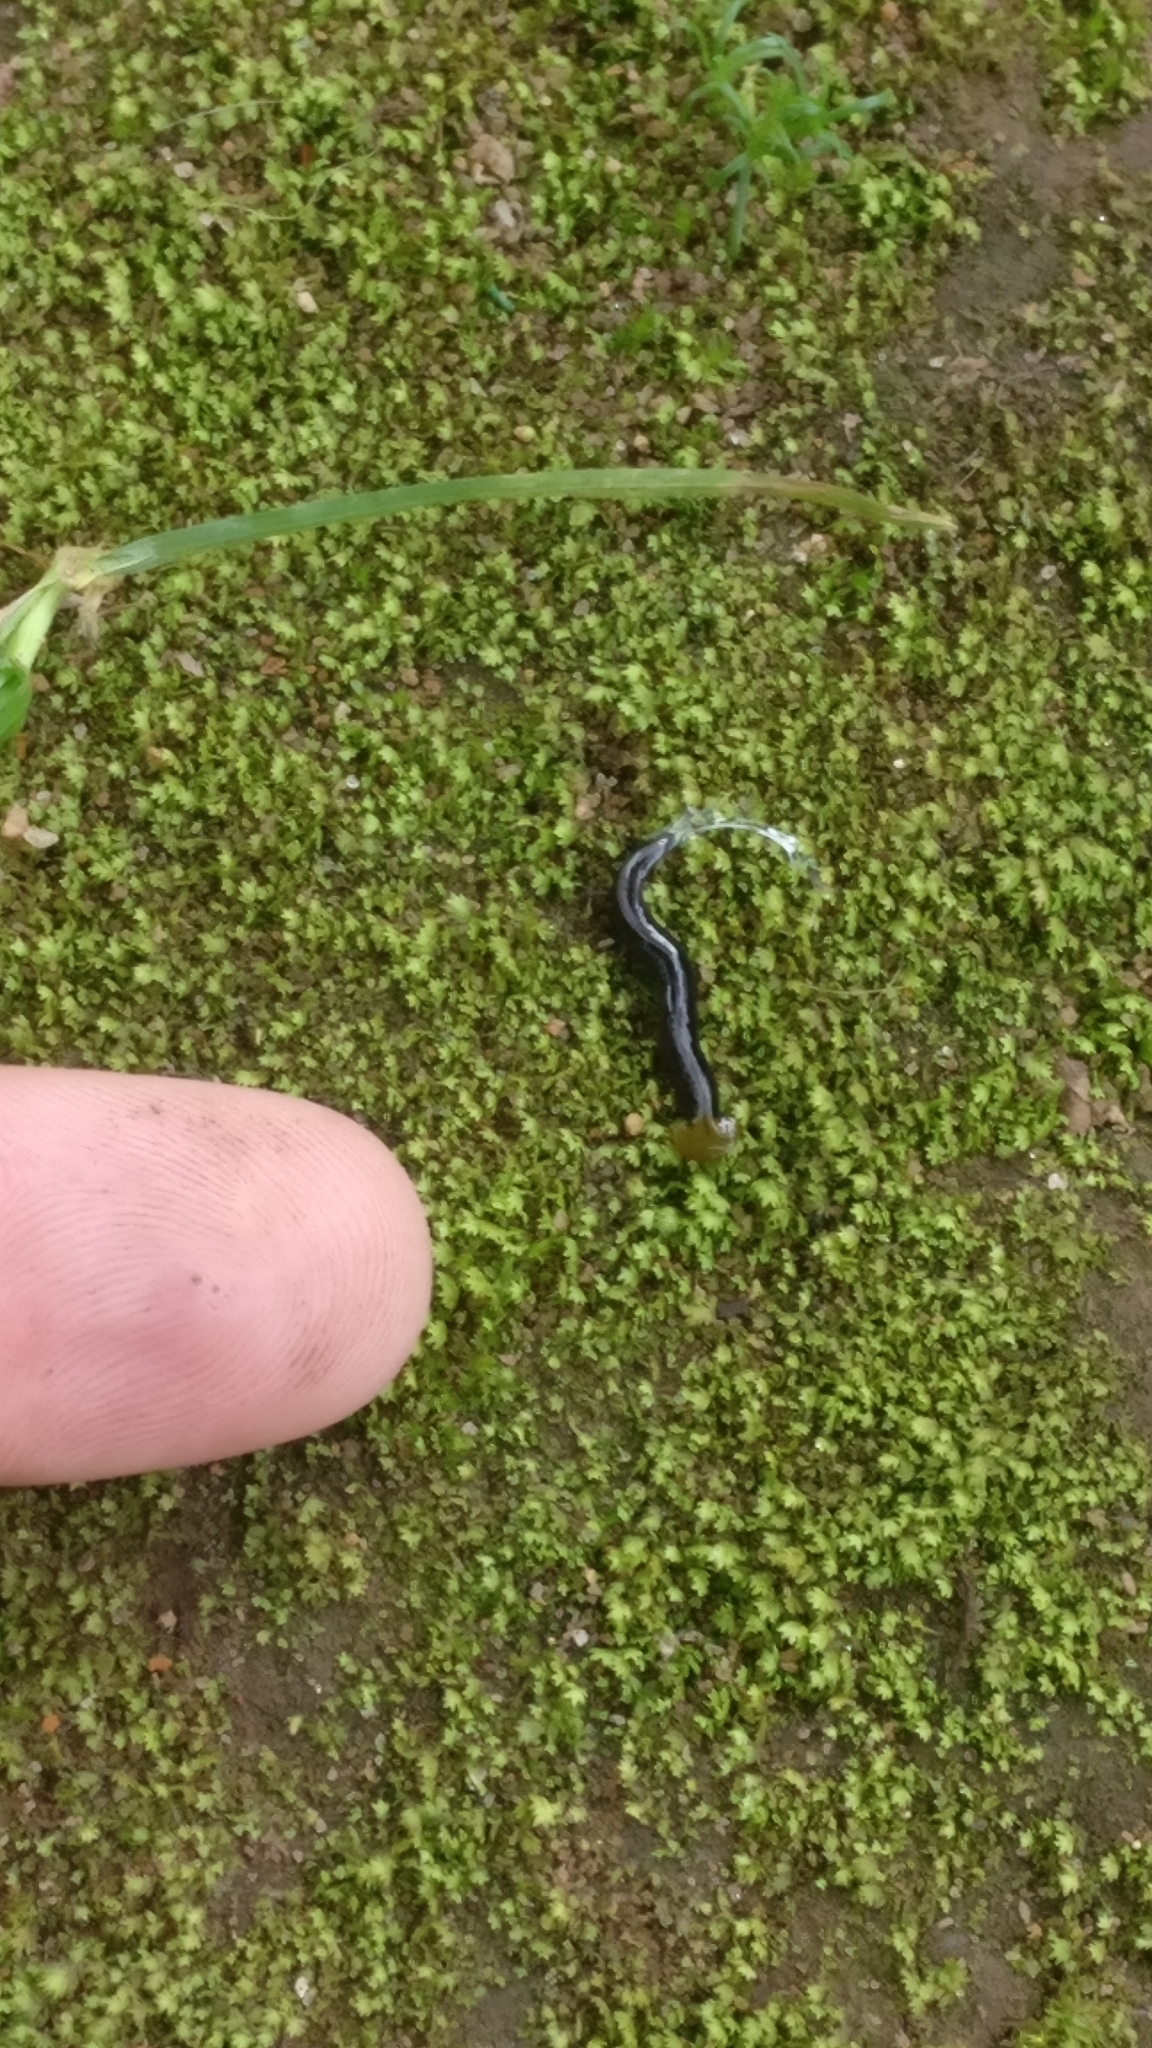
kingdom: Animalia
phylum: Platyhelminthes
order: Tricladida
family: Geoplanidae
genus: Humbertium
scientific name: Humbertium core
